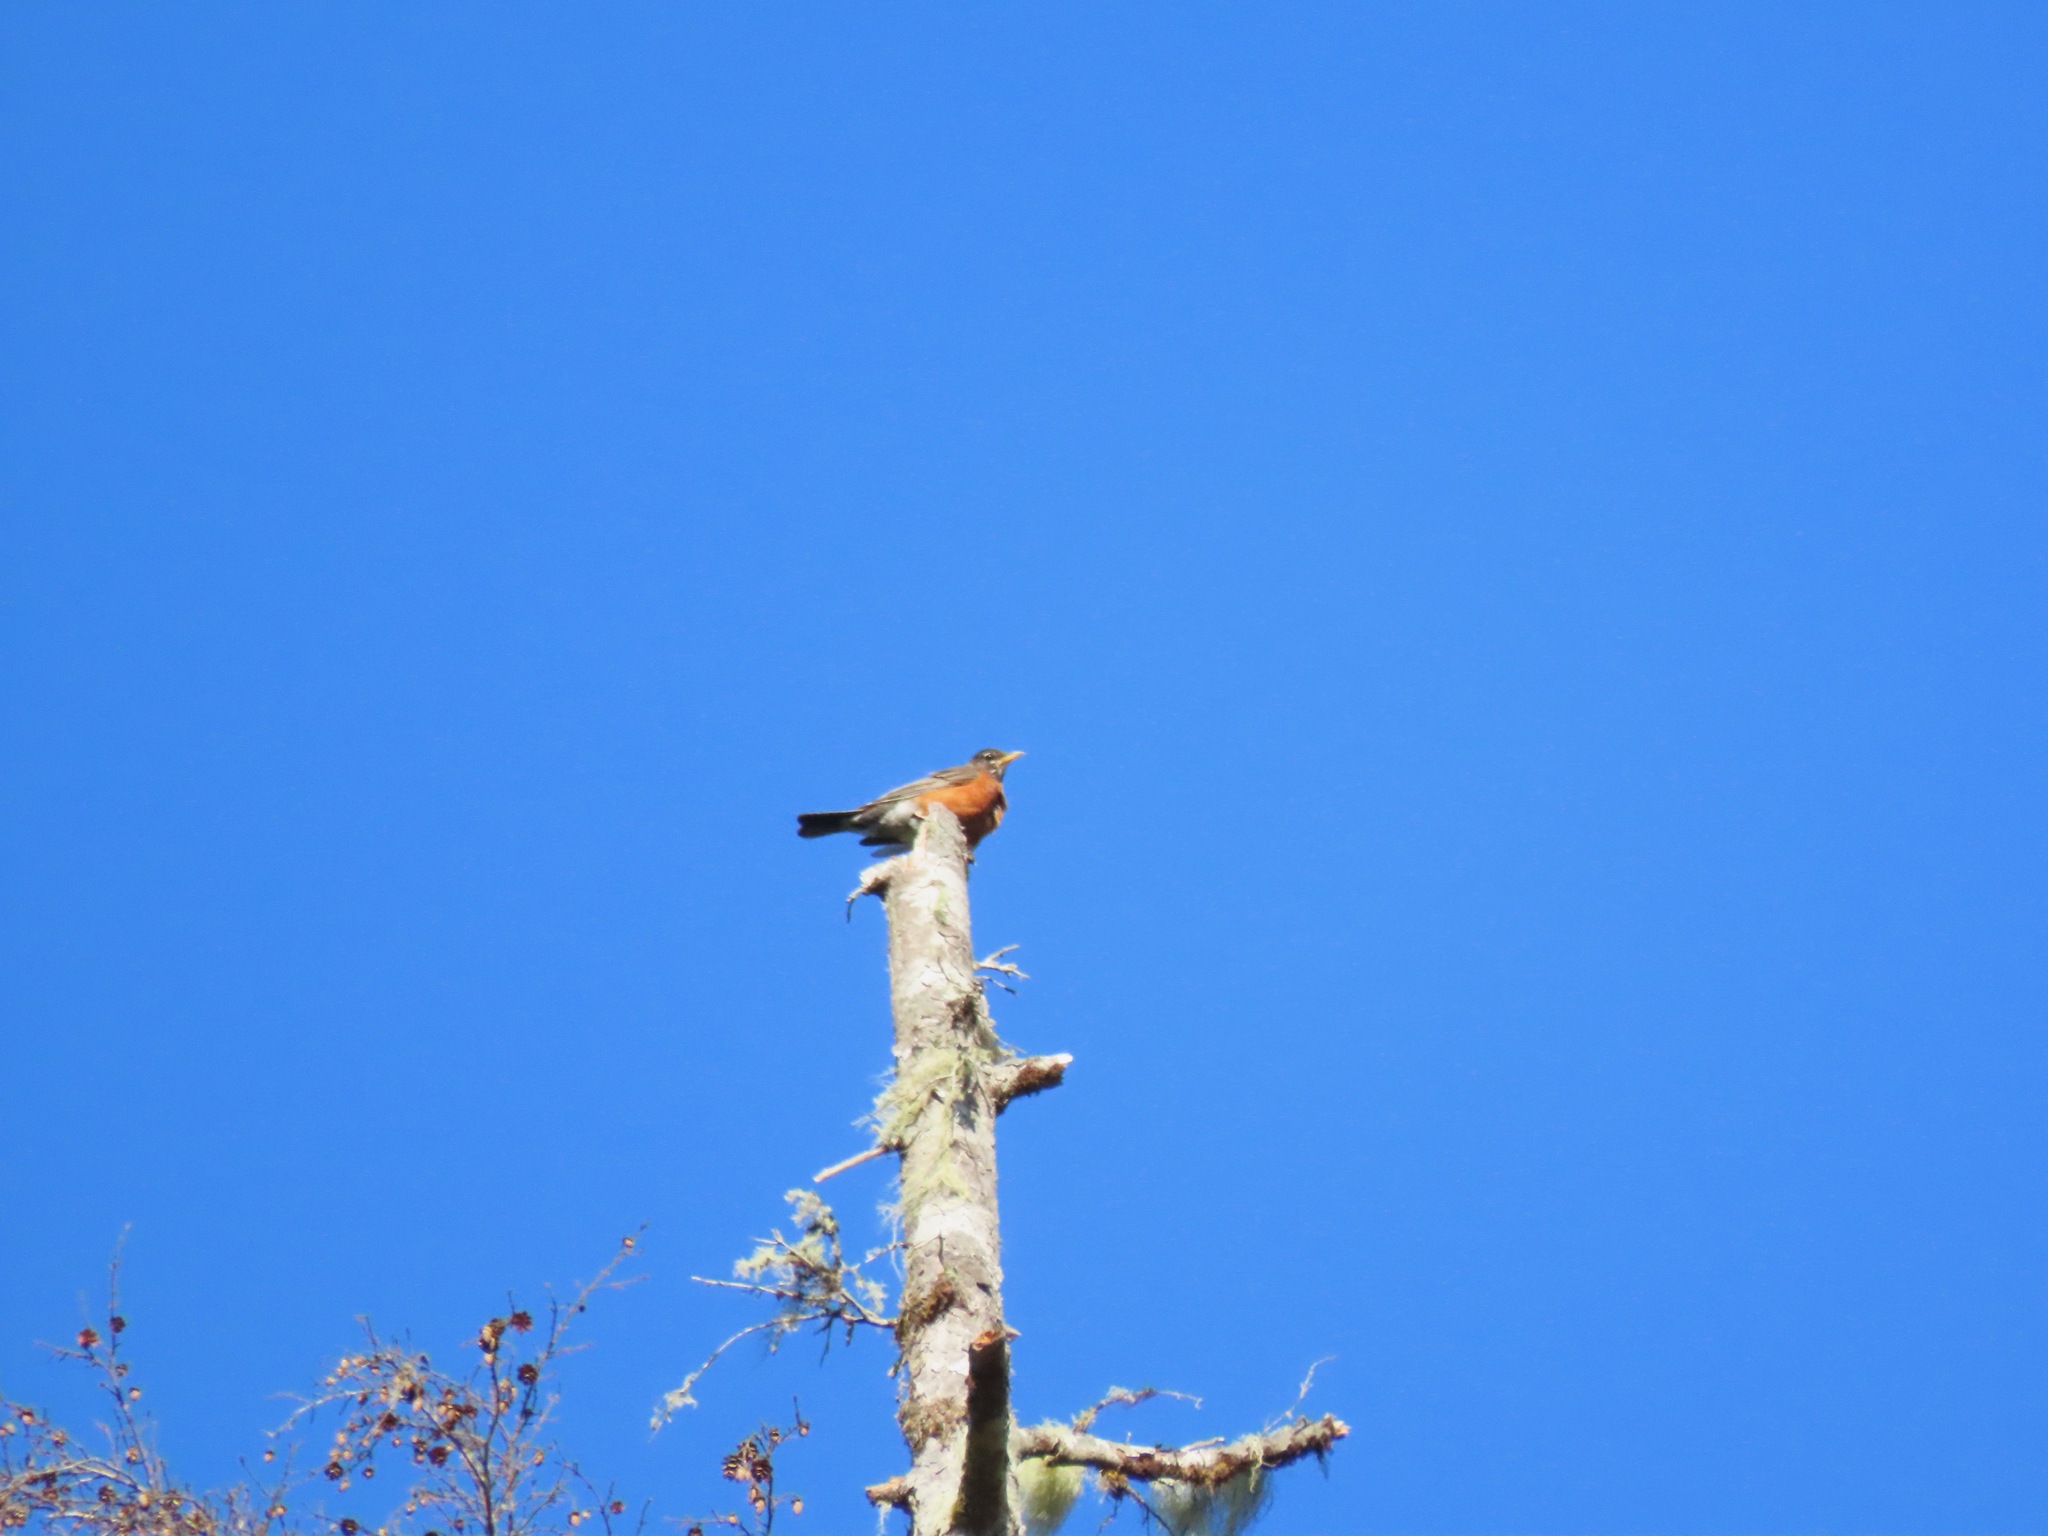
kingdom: Animalia
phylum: Chordata
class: Aves
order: Passeriformes
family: Turdidae
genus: Turdus
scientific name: Turdus migratorius
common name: American robin
